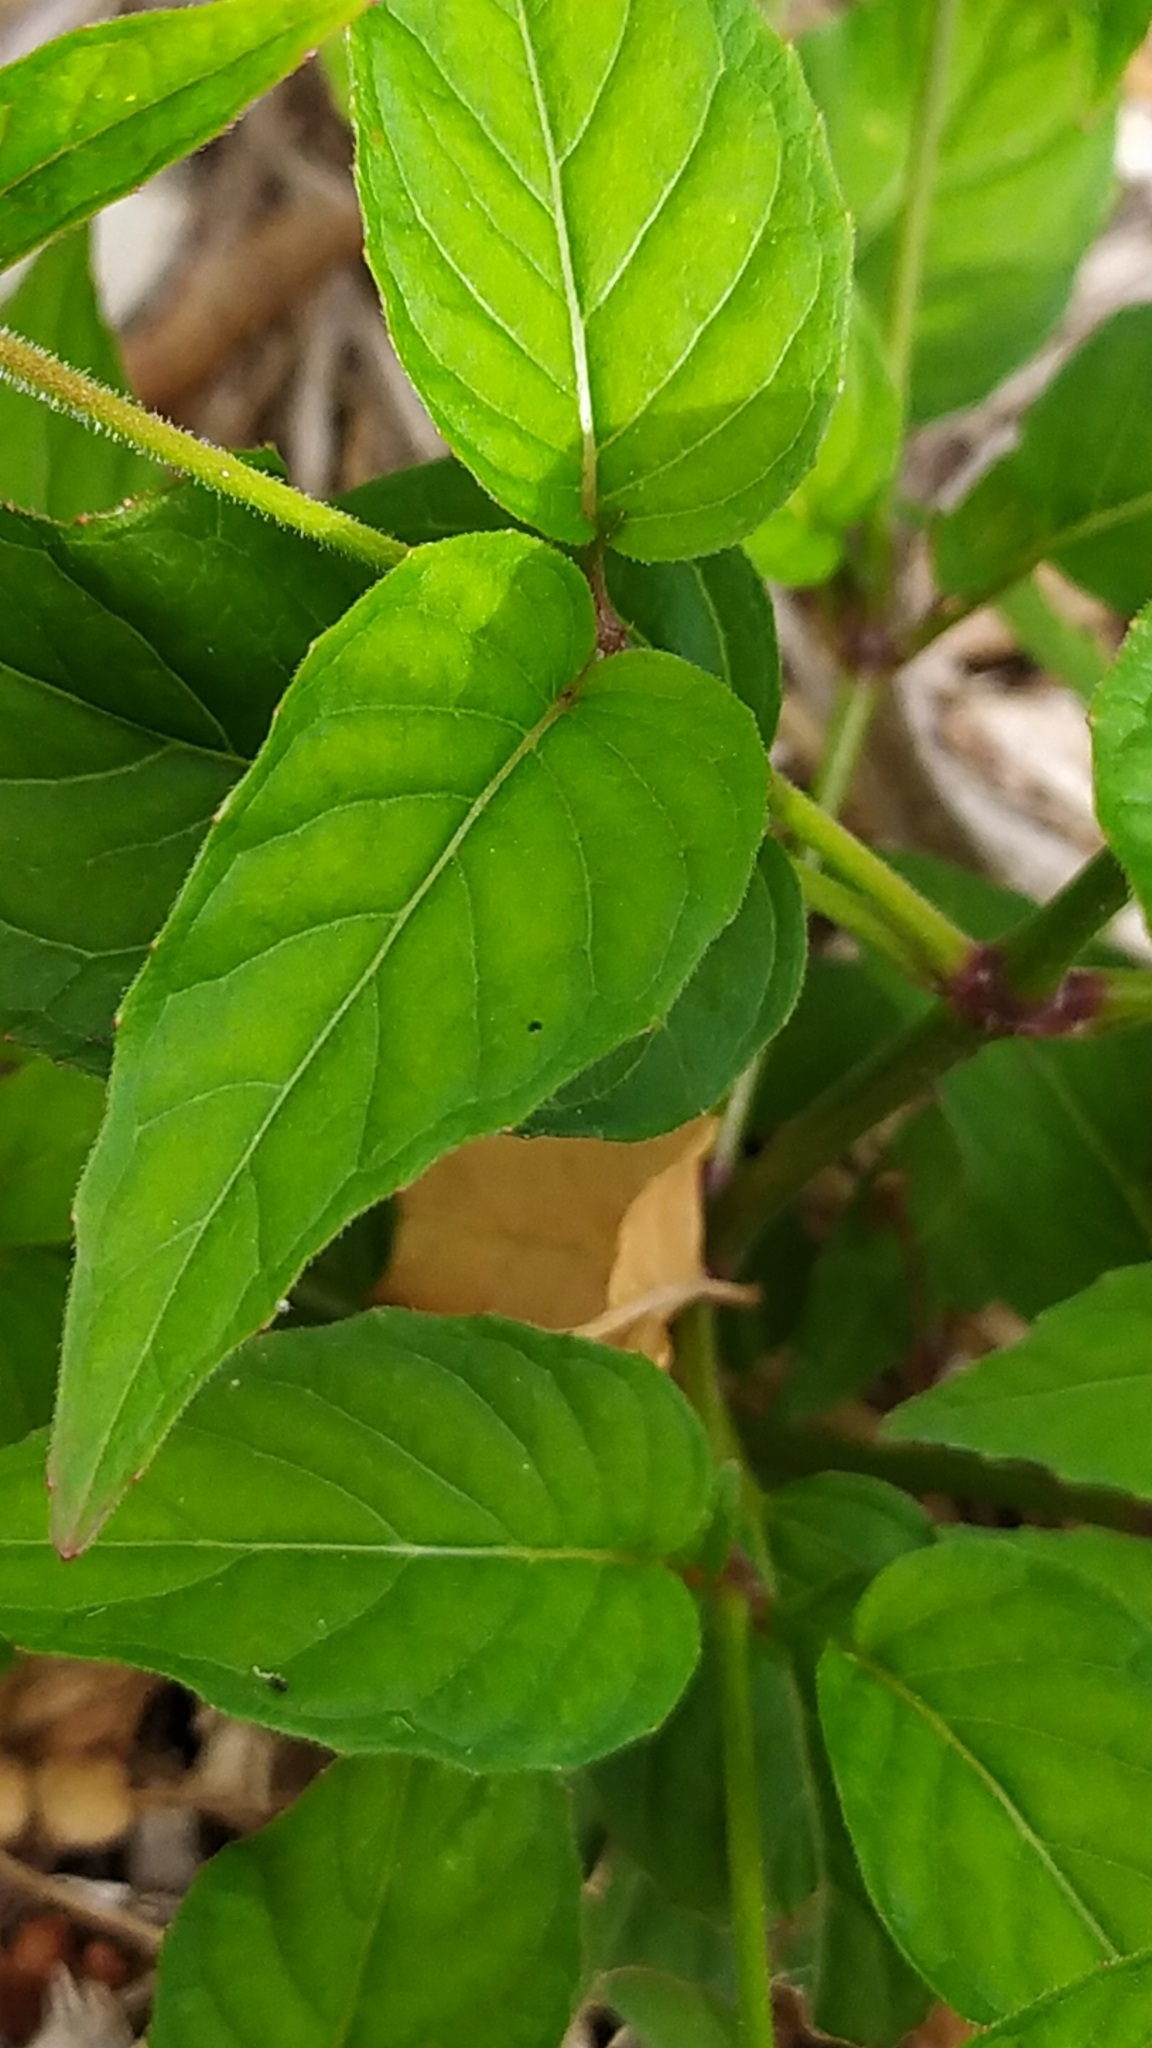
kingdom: Plantae
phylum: Tracheophyta
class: Magnoliopsida
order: Myrtales
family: Onagraceae
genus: Circaea
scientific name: Circaea lutetiana
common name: Enchanter's-nightshade
